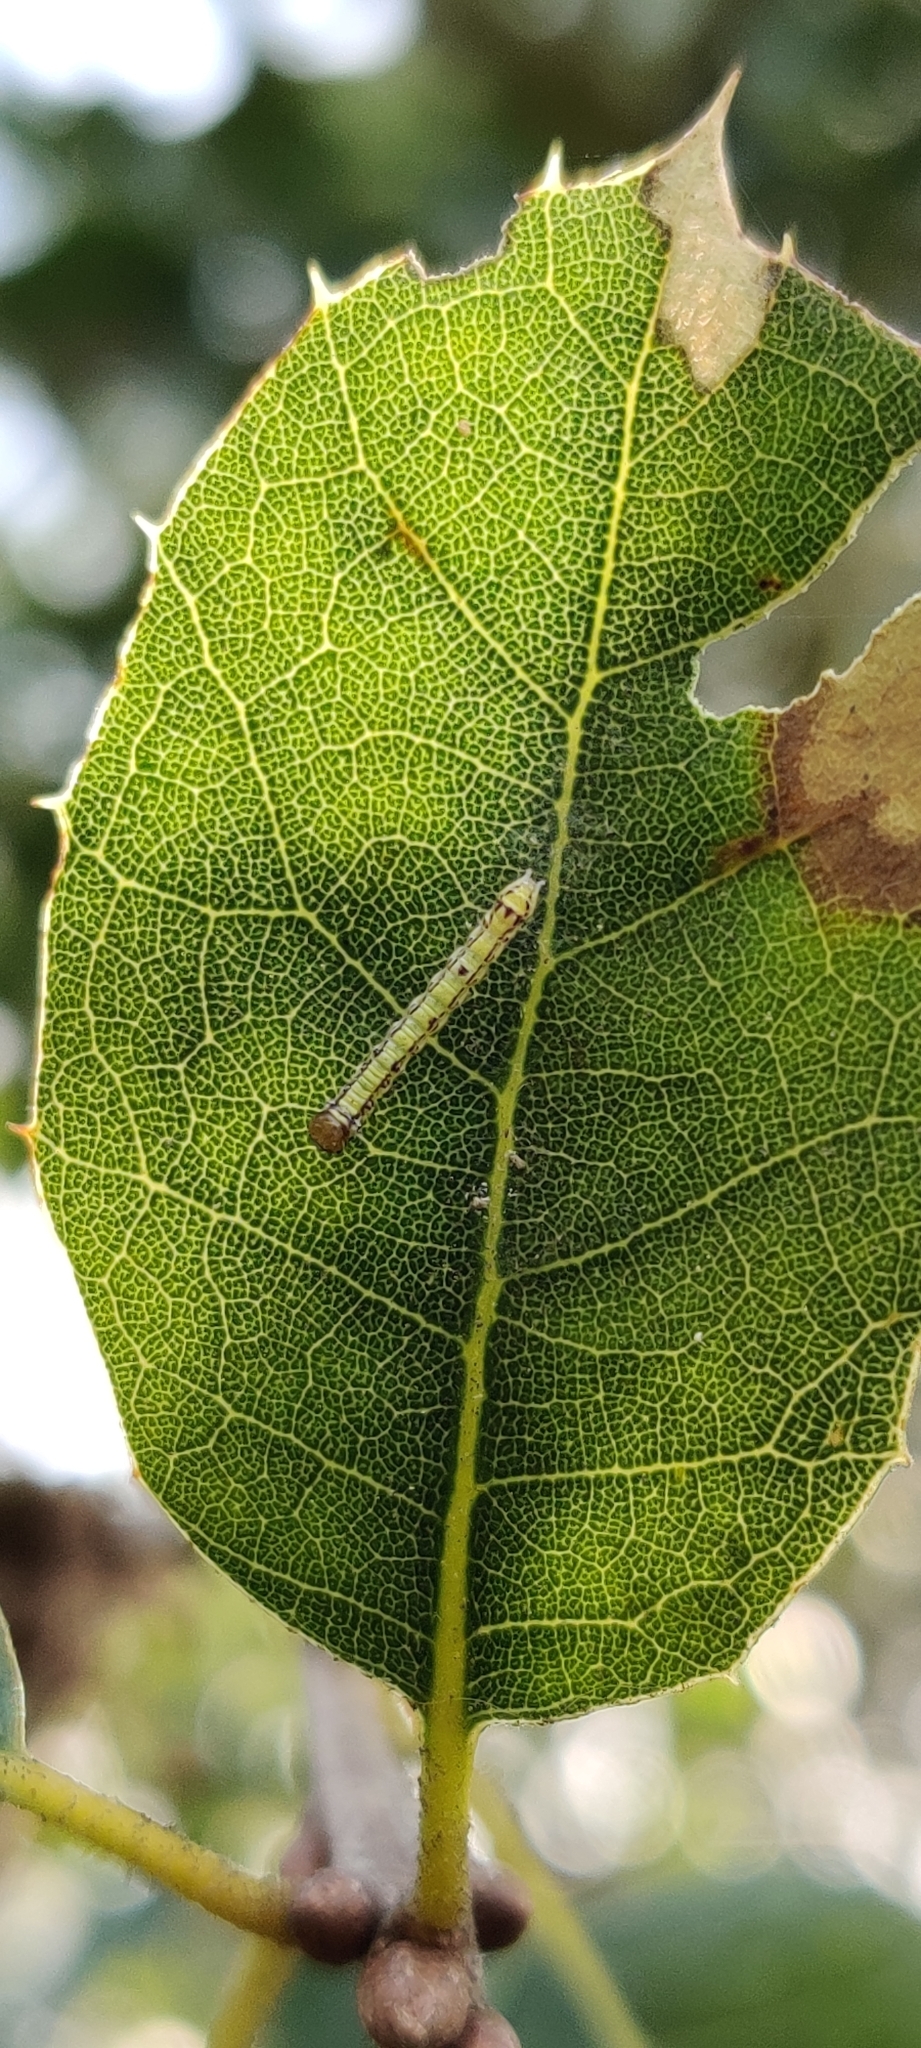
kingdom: Animalia
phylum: Arthropoda
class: Insecta
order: Lepidoptera
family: Notodontidae
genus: Phryganidia
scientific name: Phryganidia californica
